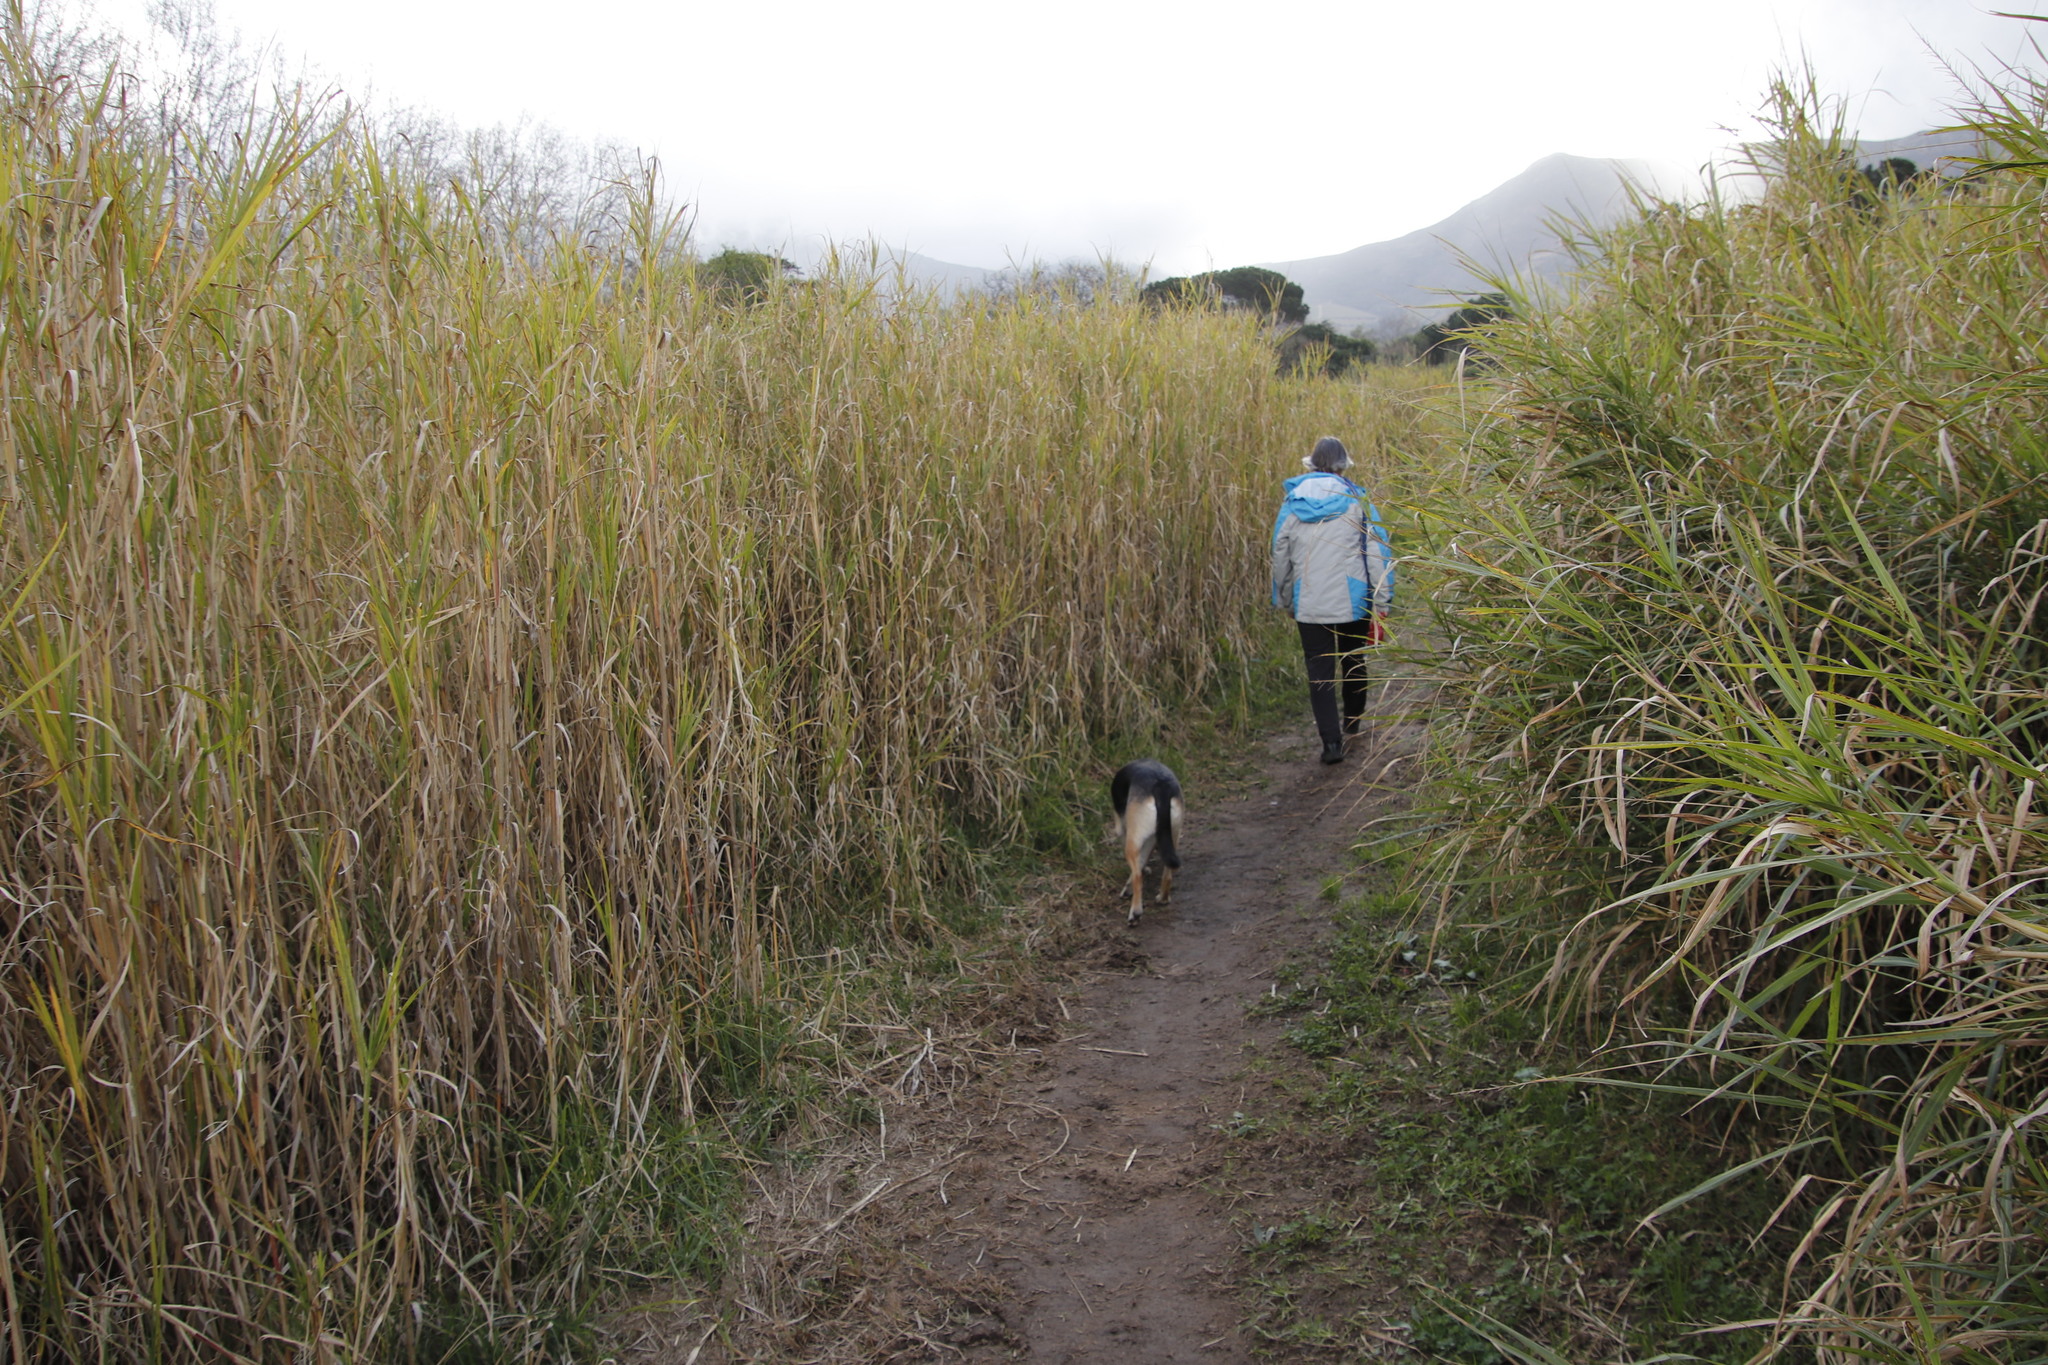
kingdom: Plantae
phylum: Tracheophyta
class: Liliopsida
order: Poales
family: Poaceae
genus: Echinochloa
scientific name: Echinochloa pyramidalis
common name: Antelope grass
